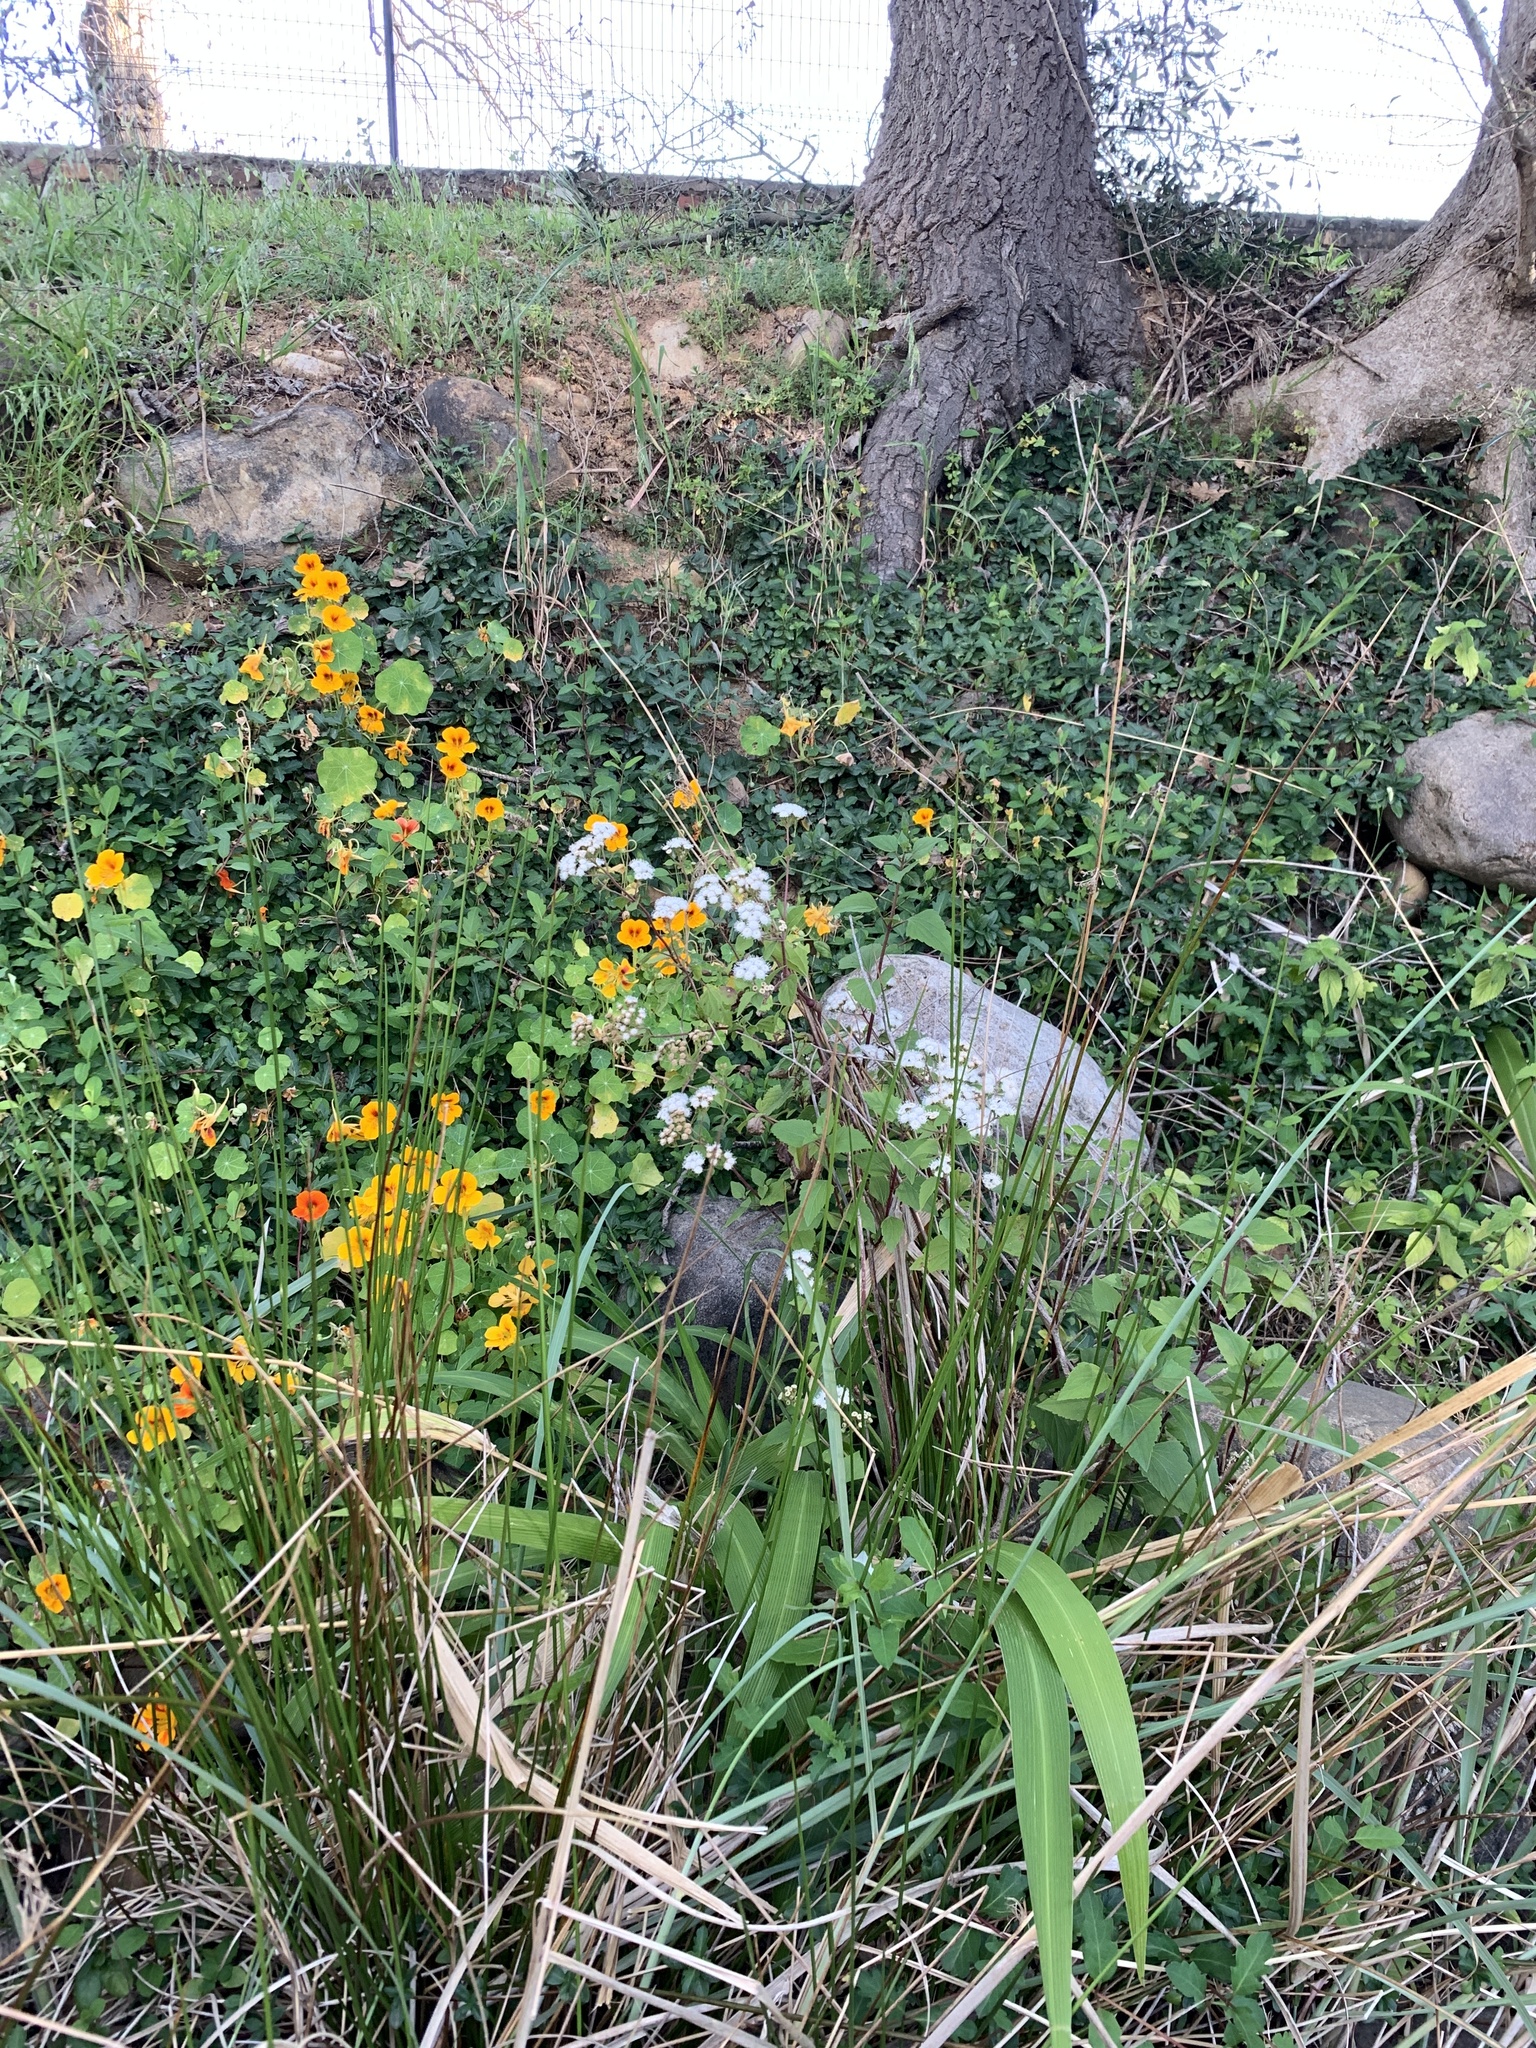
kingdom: Plantae
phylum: Tracheophyta
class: Magnoliopsida
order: Asterales
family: Asteraceae
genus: Ageratina
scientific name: Ageratina adenophora
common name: Sticky snakeroot
